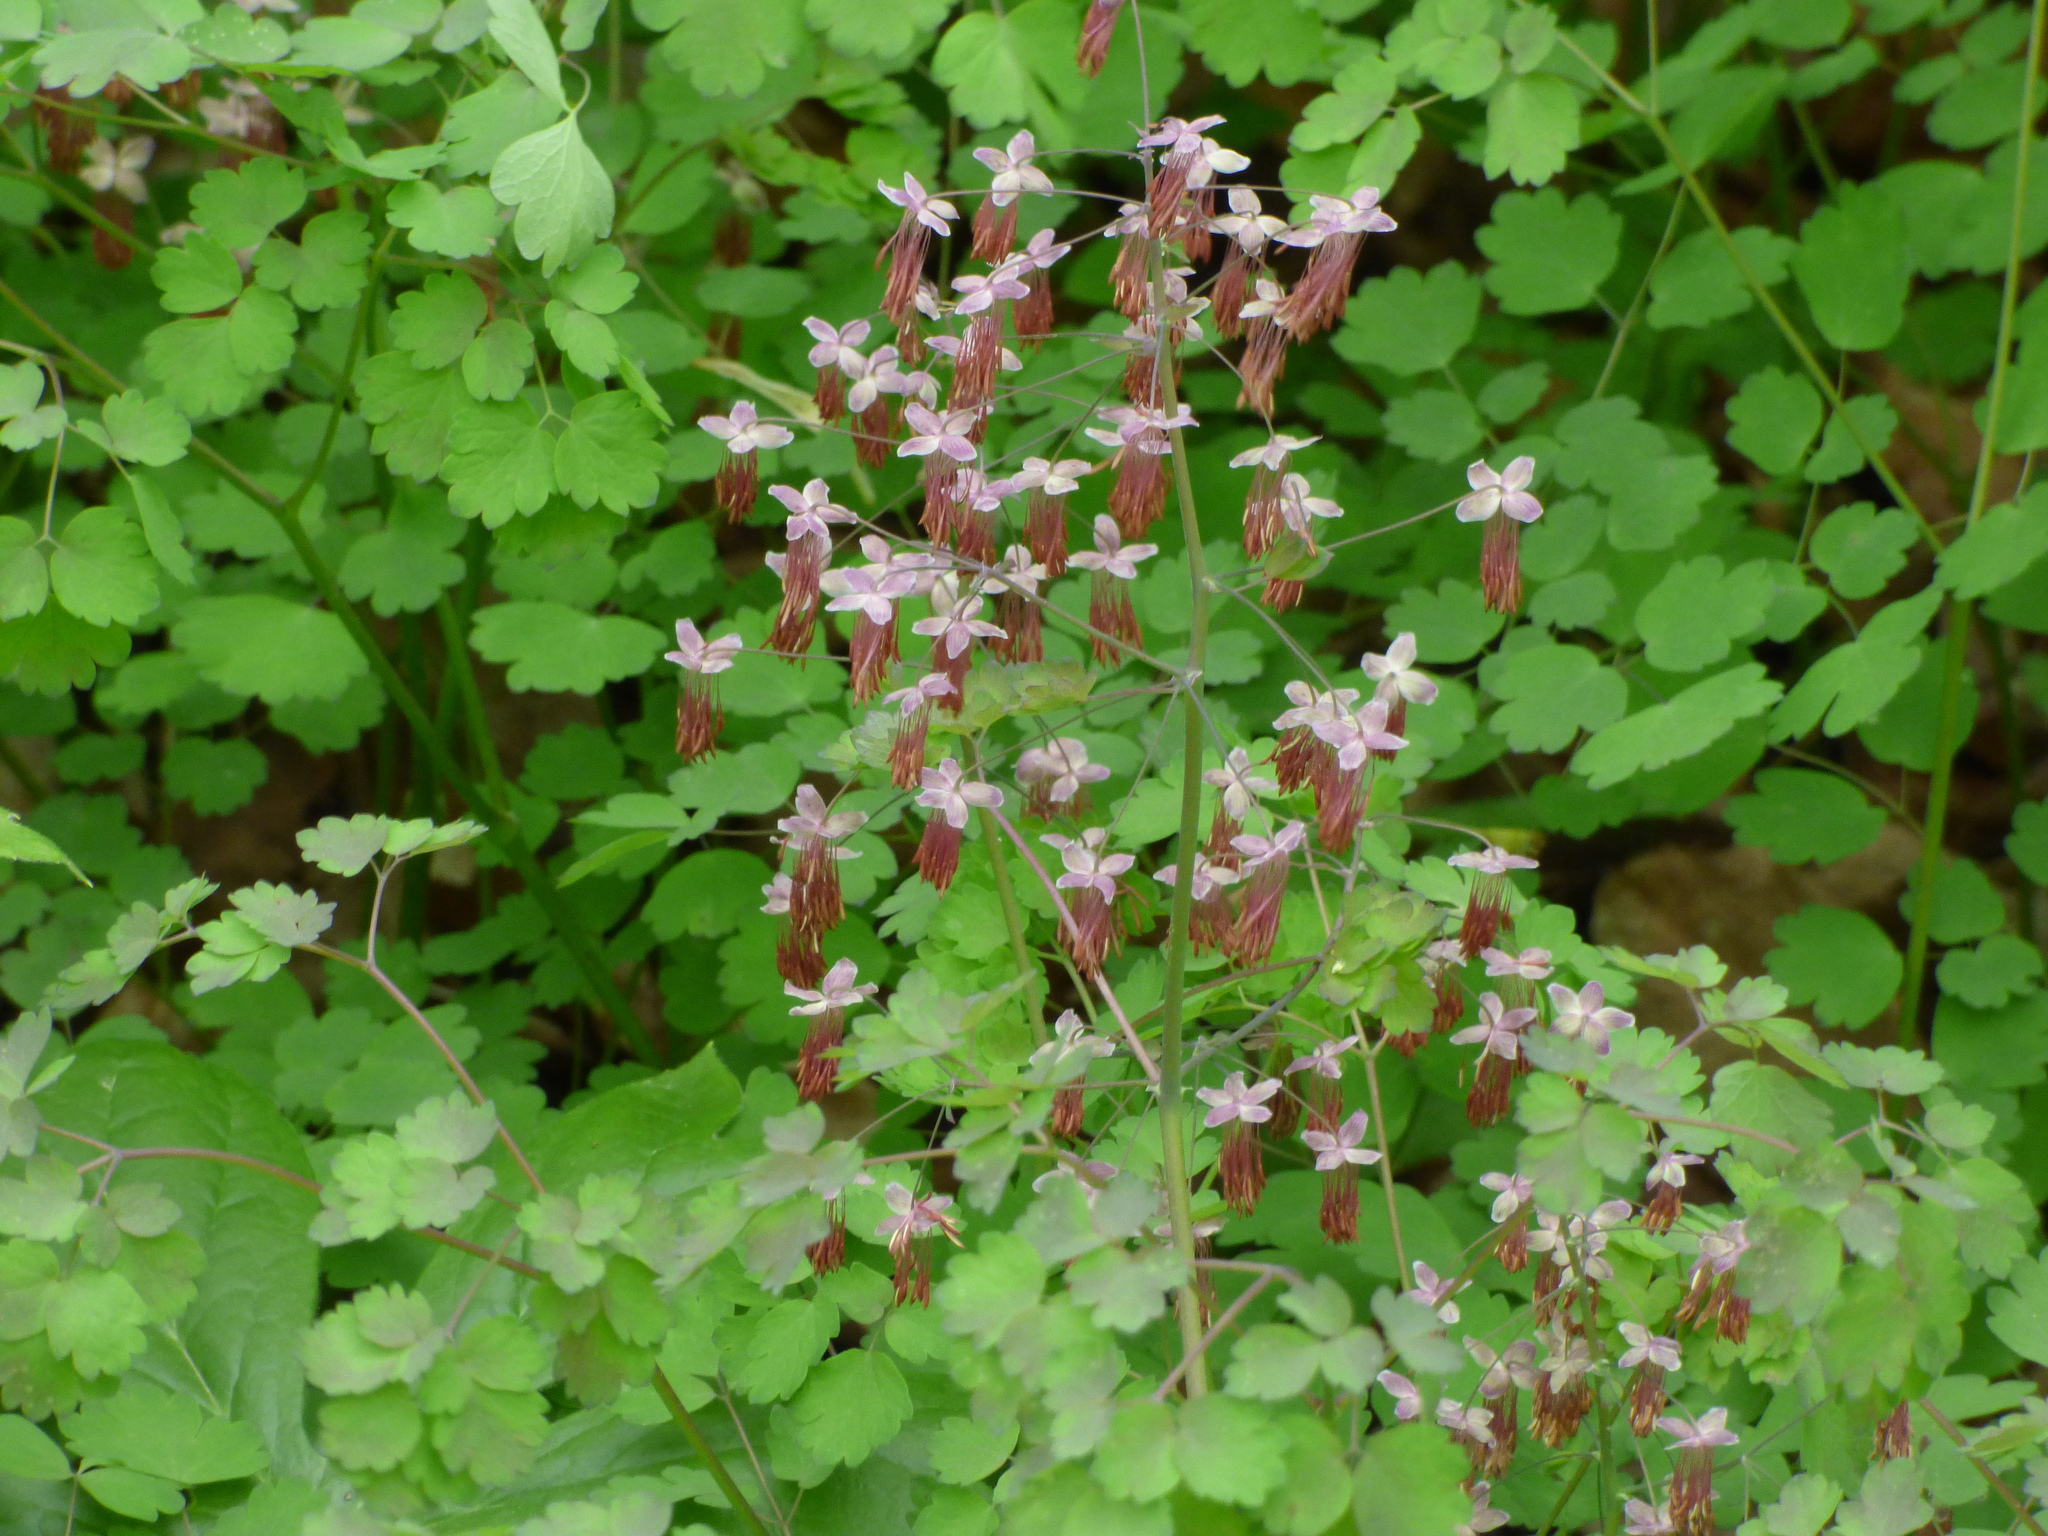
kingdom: Plantae
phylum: Tracheophyta
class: Magnoliopsida
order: Ranunculales
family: Ranunculaceae
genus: Thalictrum
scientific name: Thalictrum dioicum
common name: Early meadow-rue
